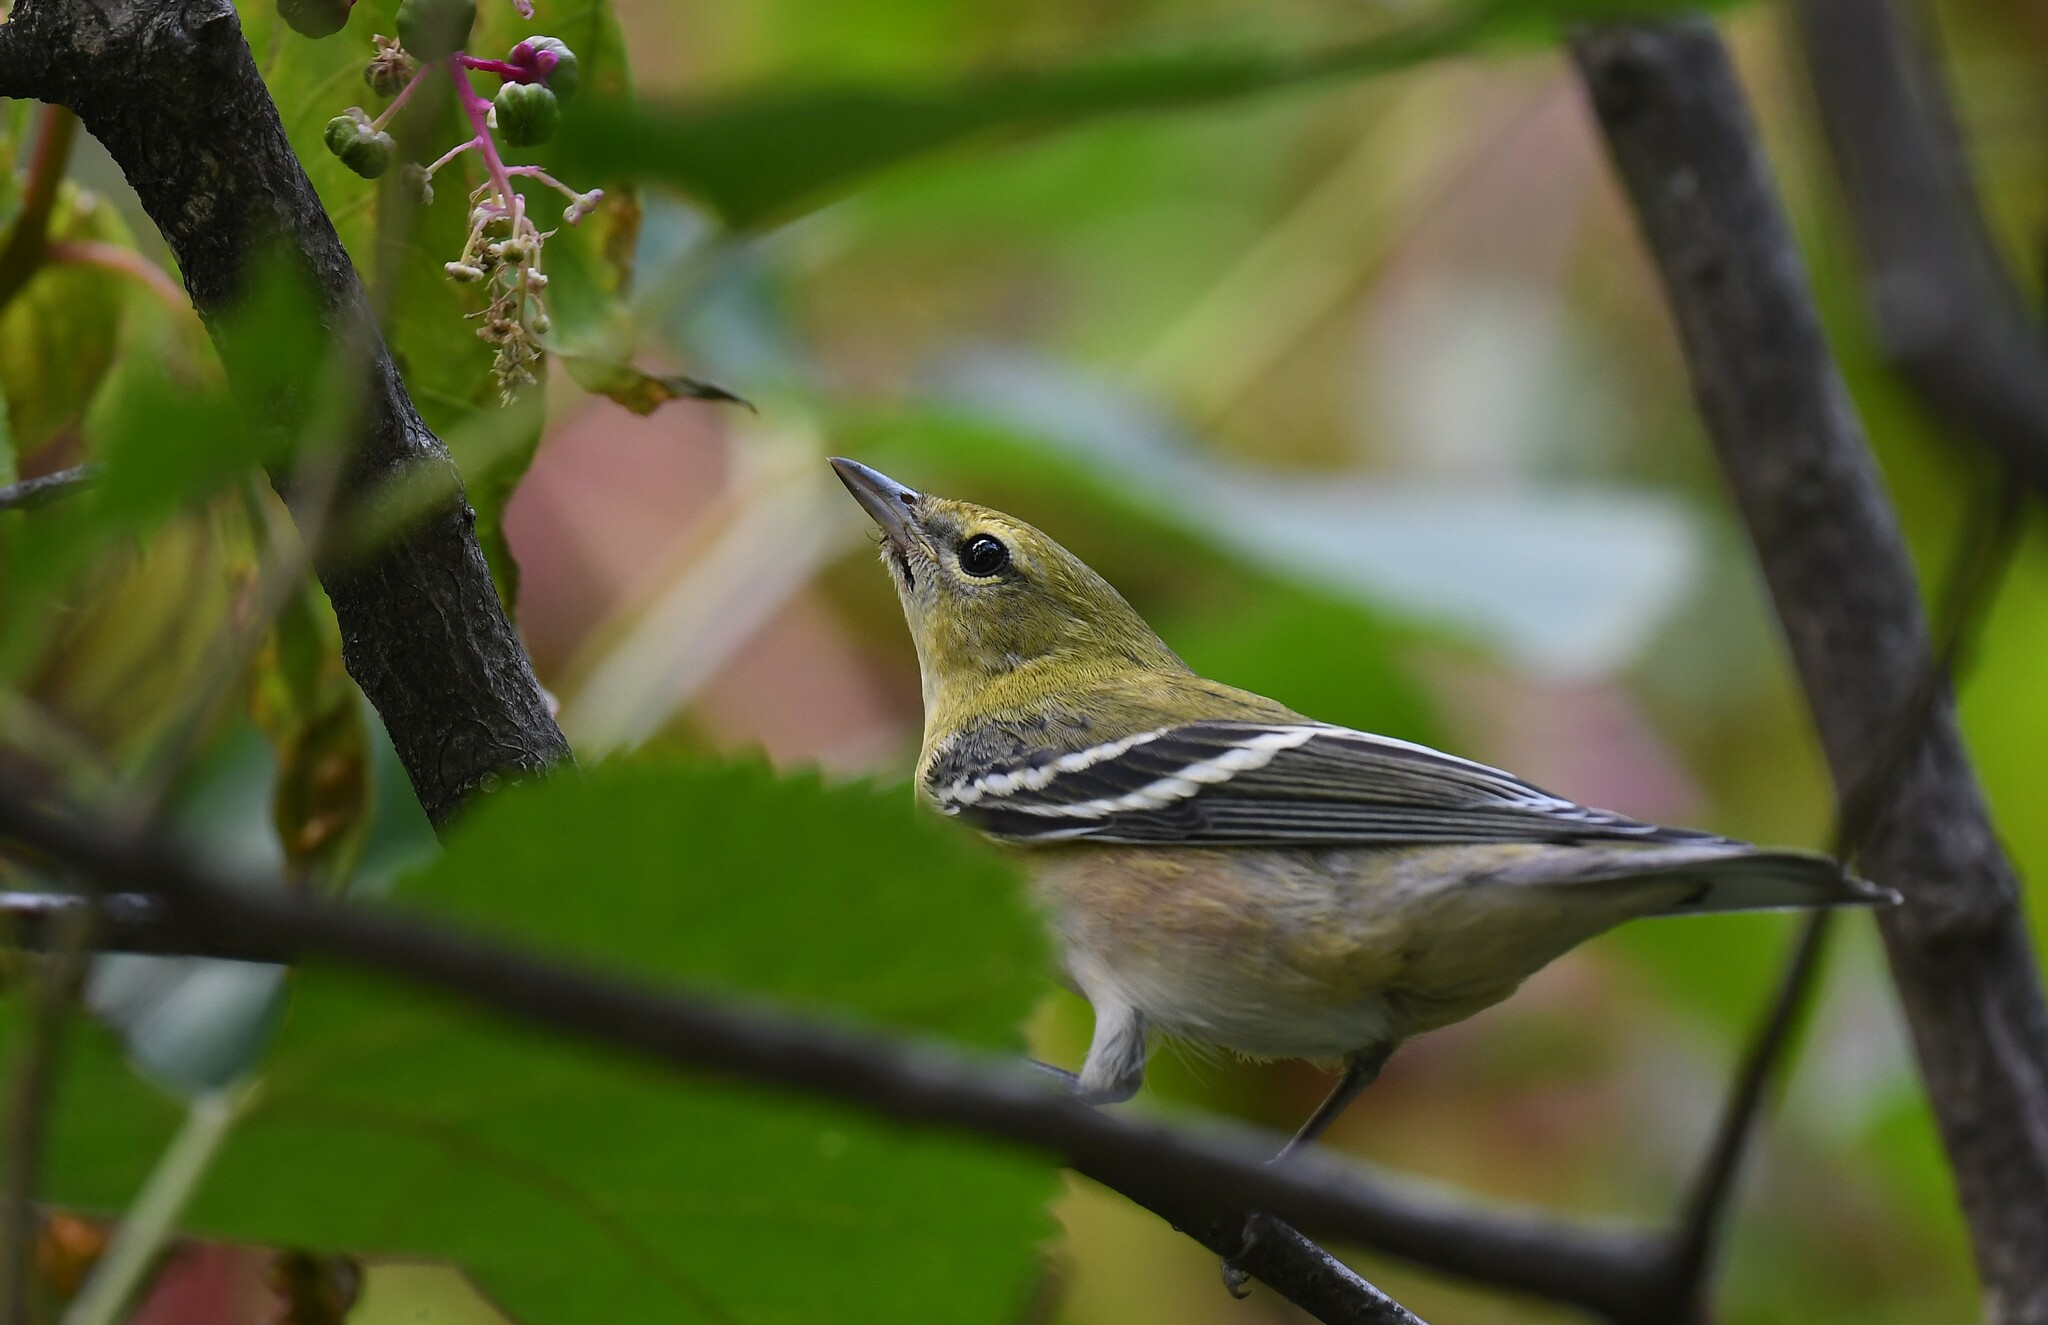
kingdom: Animalia
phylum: Chordata
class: Aves
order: Passeriformes
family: Parulidae
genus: Setophaga
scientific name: Setophaga castanea
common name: Bay-breasted warbler
